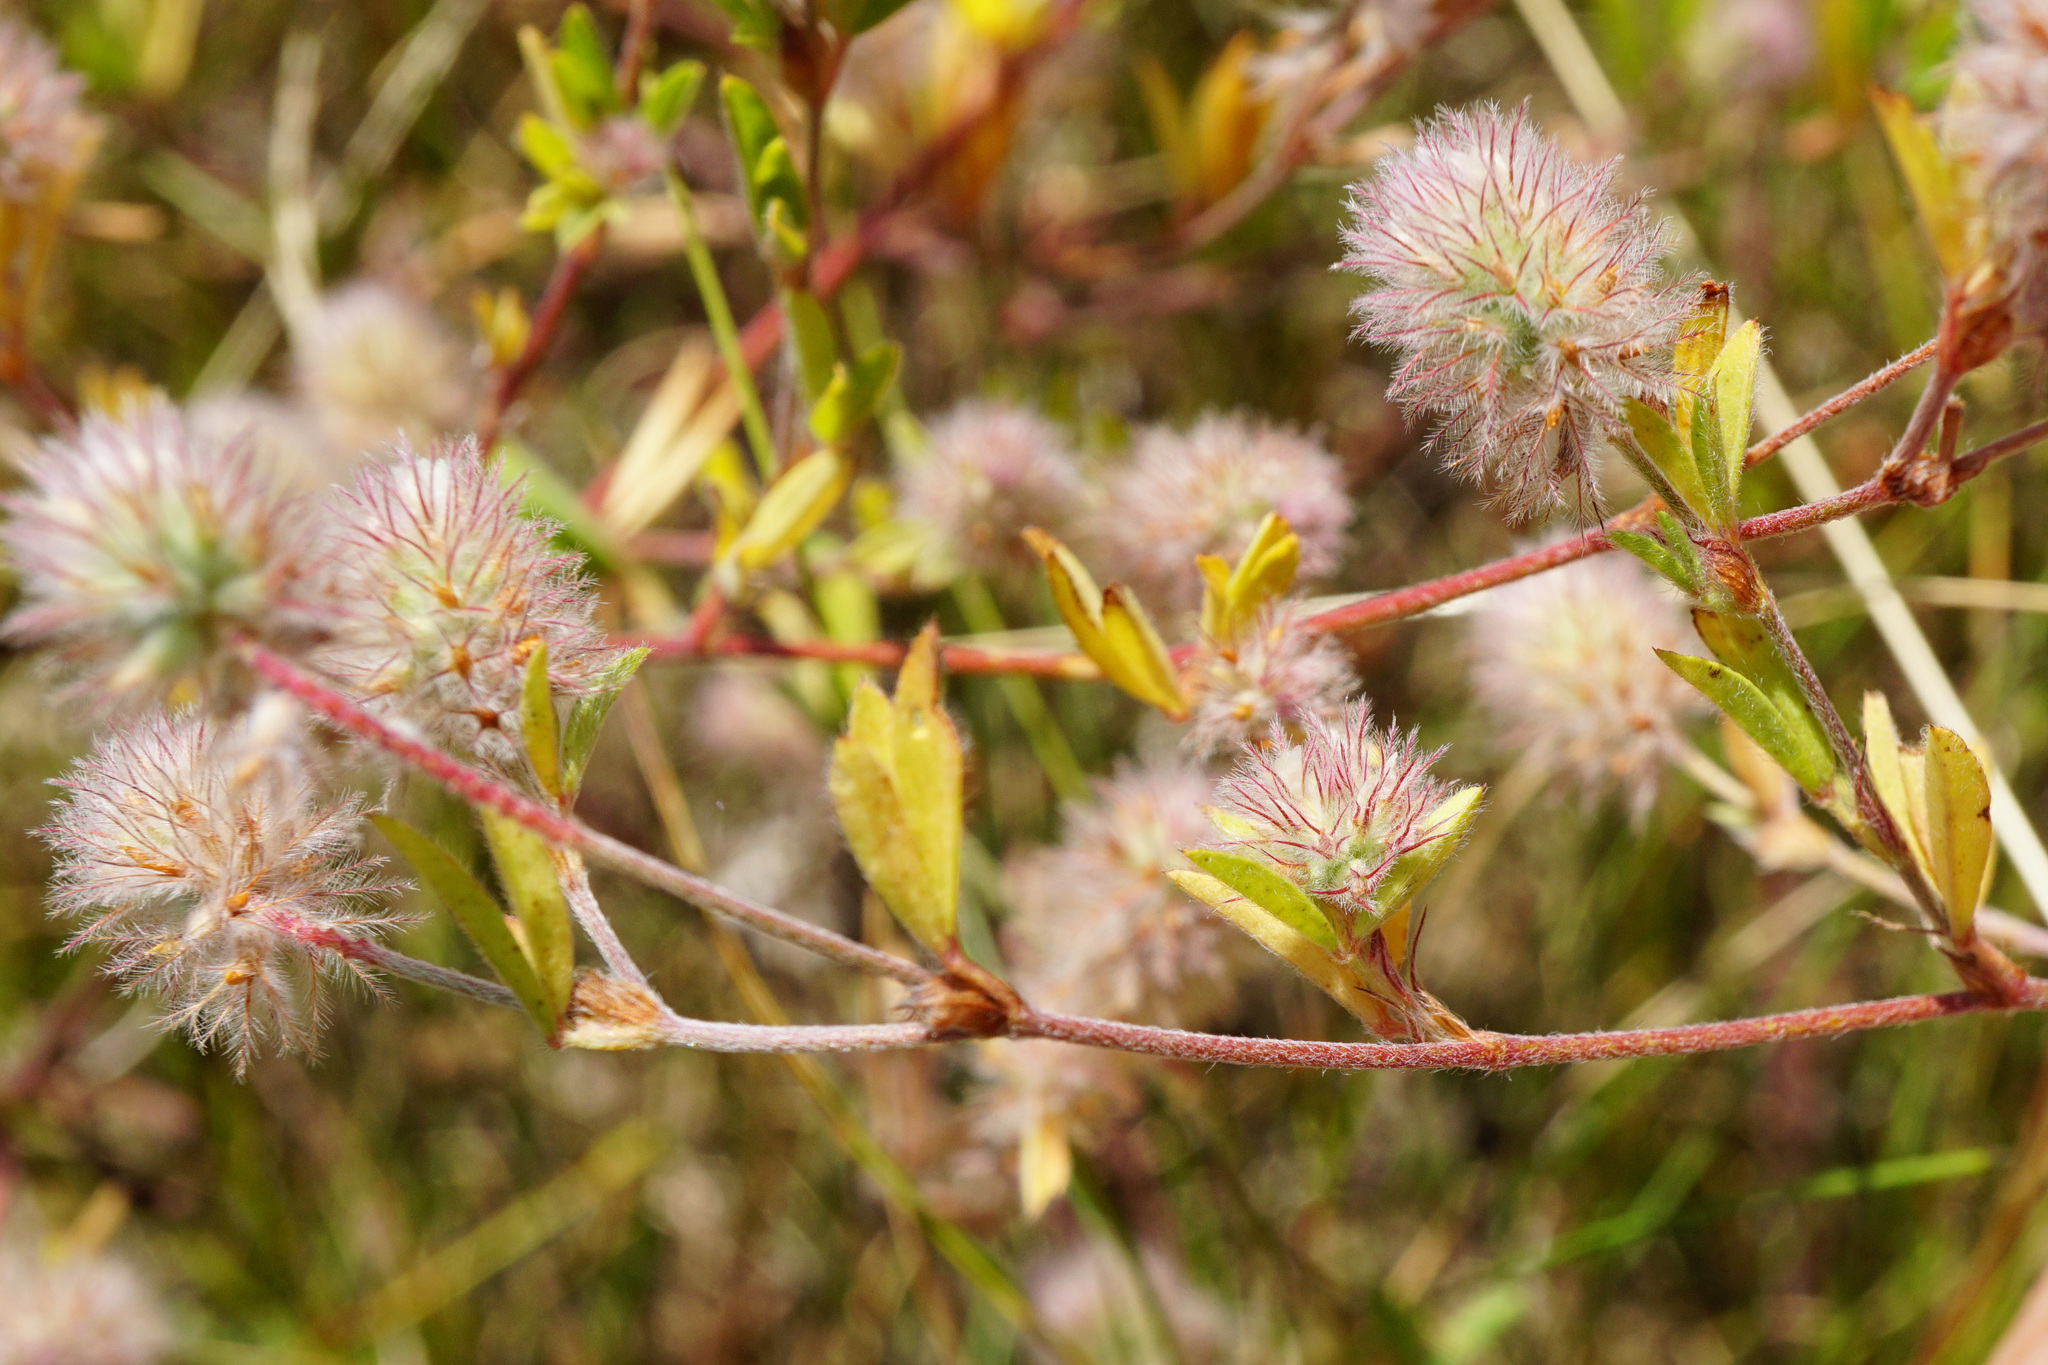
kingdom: Plantae
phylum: Tracheophyta
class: Magnoliopsida
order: Fabales
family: Fabaceae
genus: Trifolium
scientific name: Trifolium arvense
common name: Hare's-foot clover
